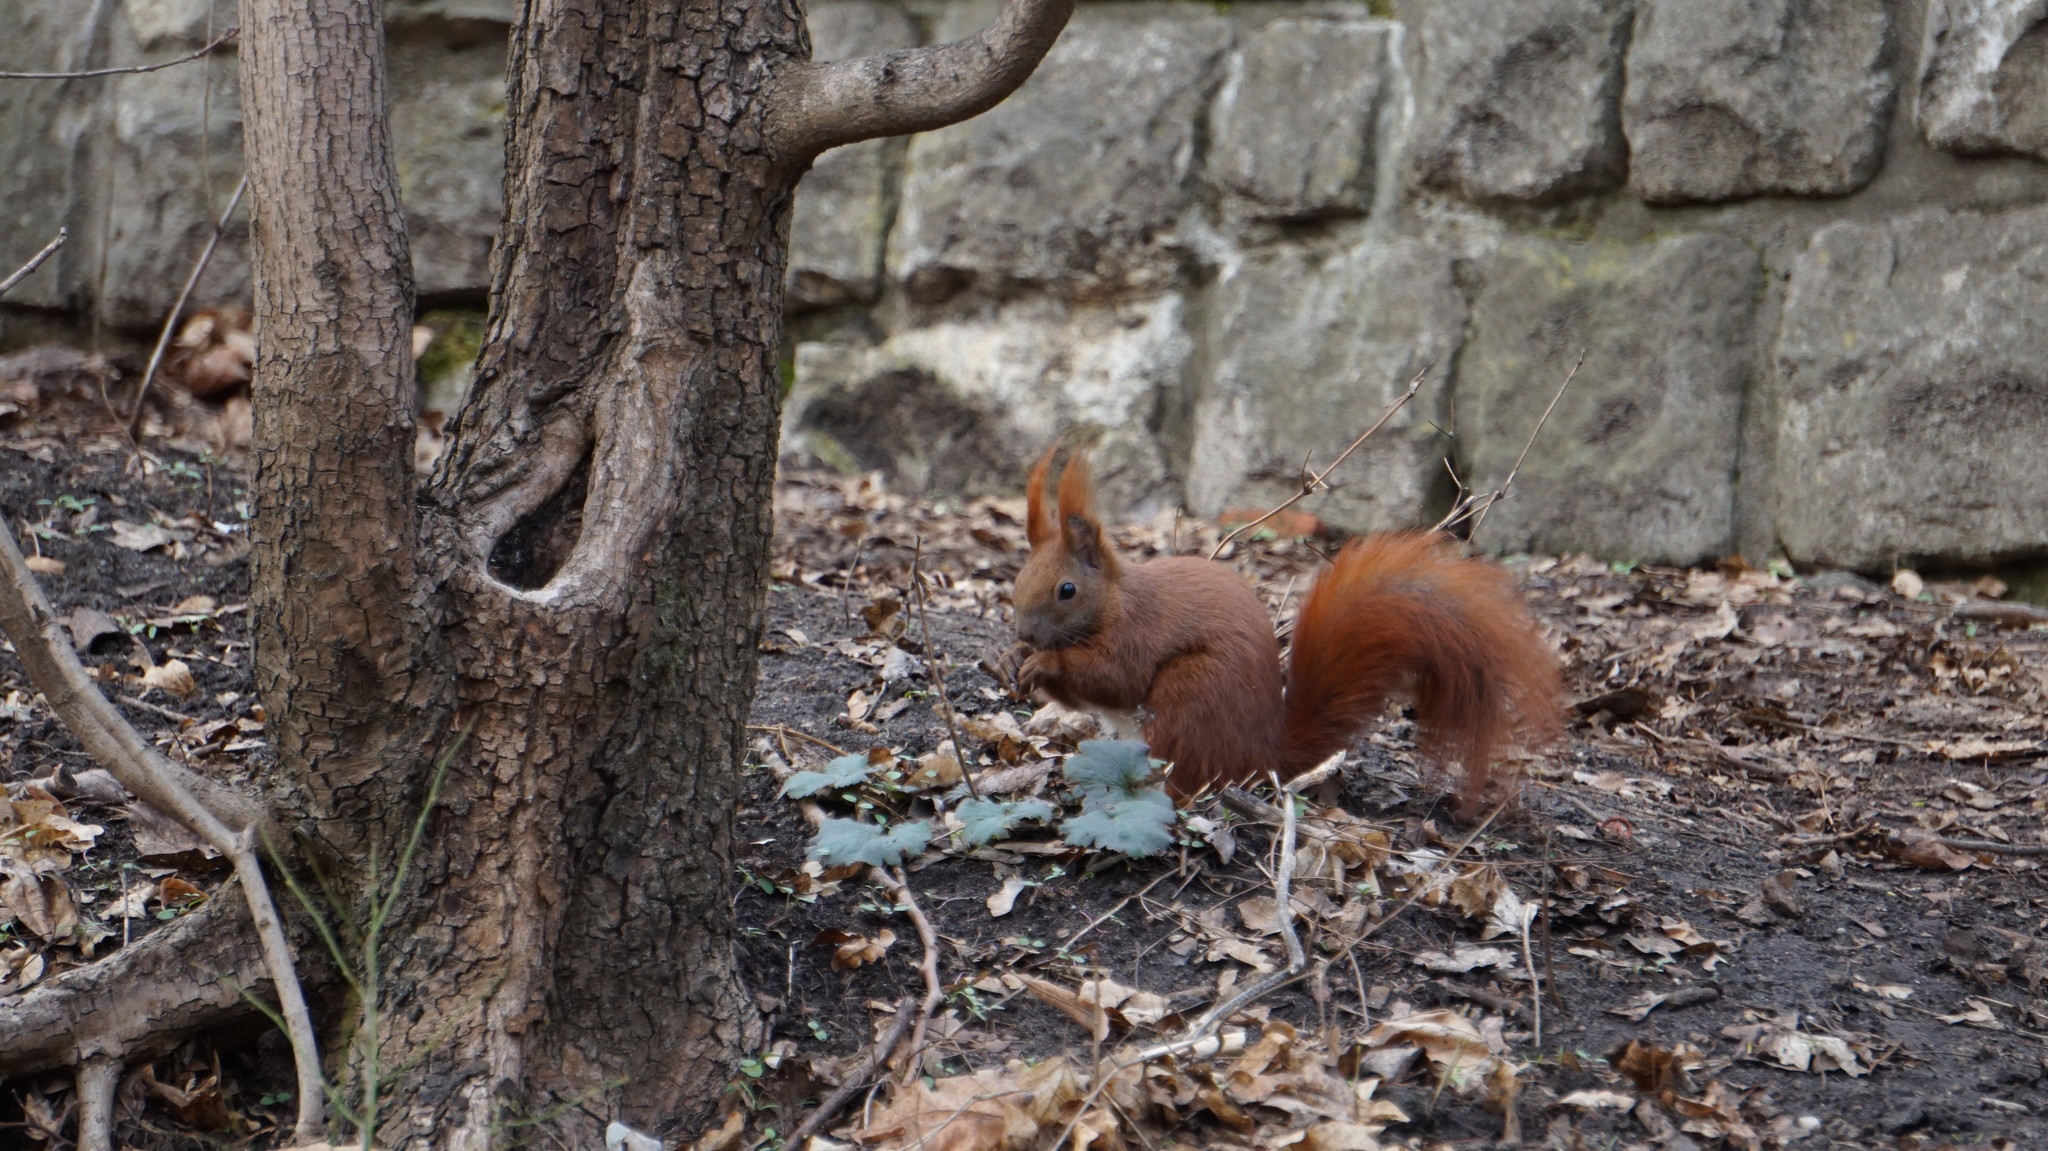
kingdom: Animalia
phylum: Chordata
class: Mammalia
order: Rodentia
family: Sciuridae
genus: Sciurus
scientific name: Sciurus vulgaris
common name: Eurasian red squirrel
